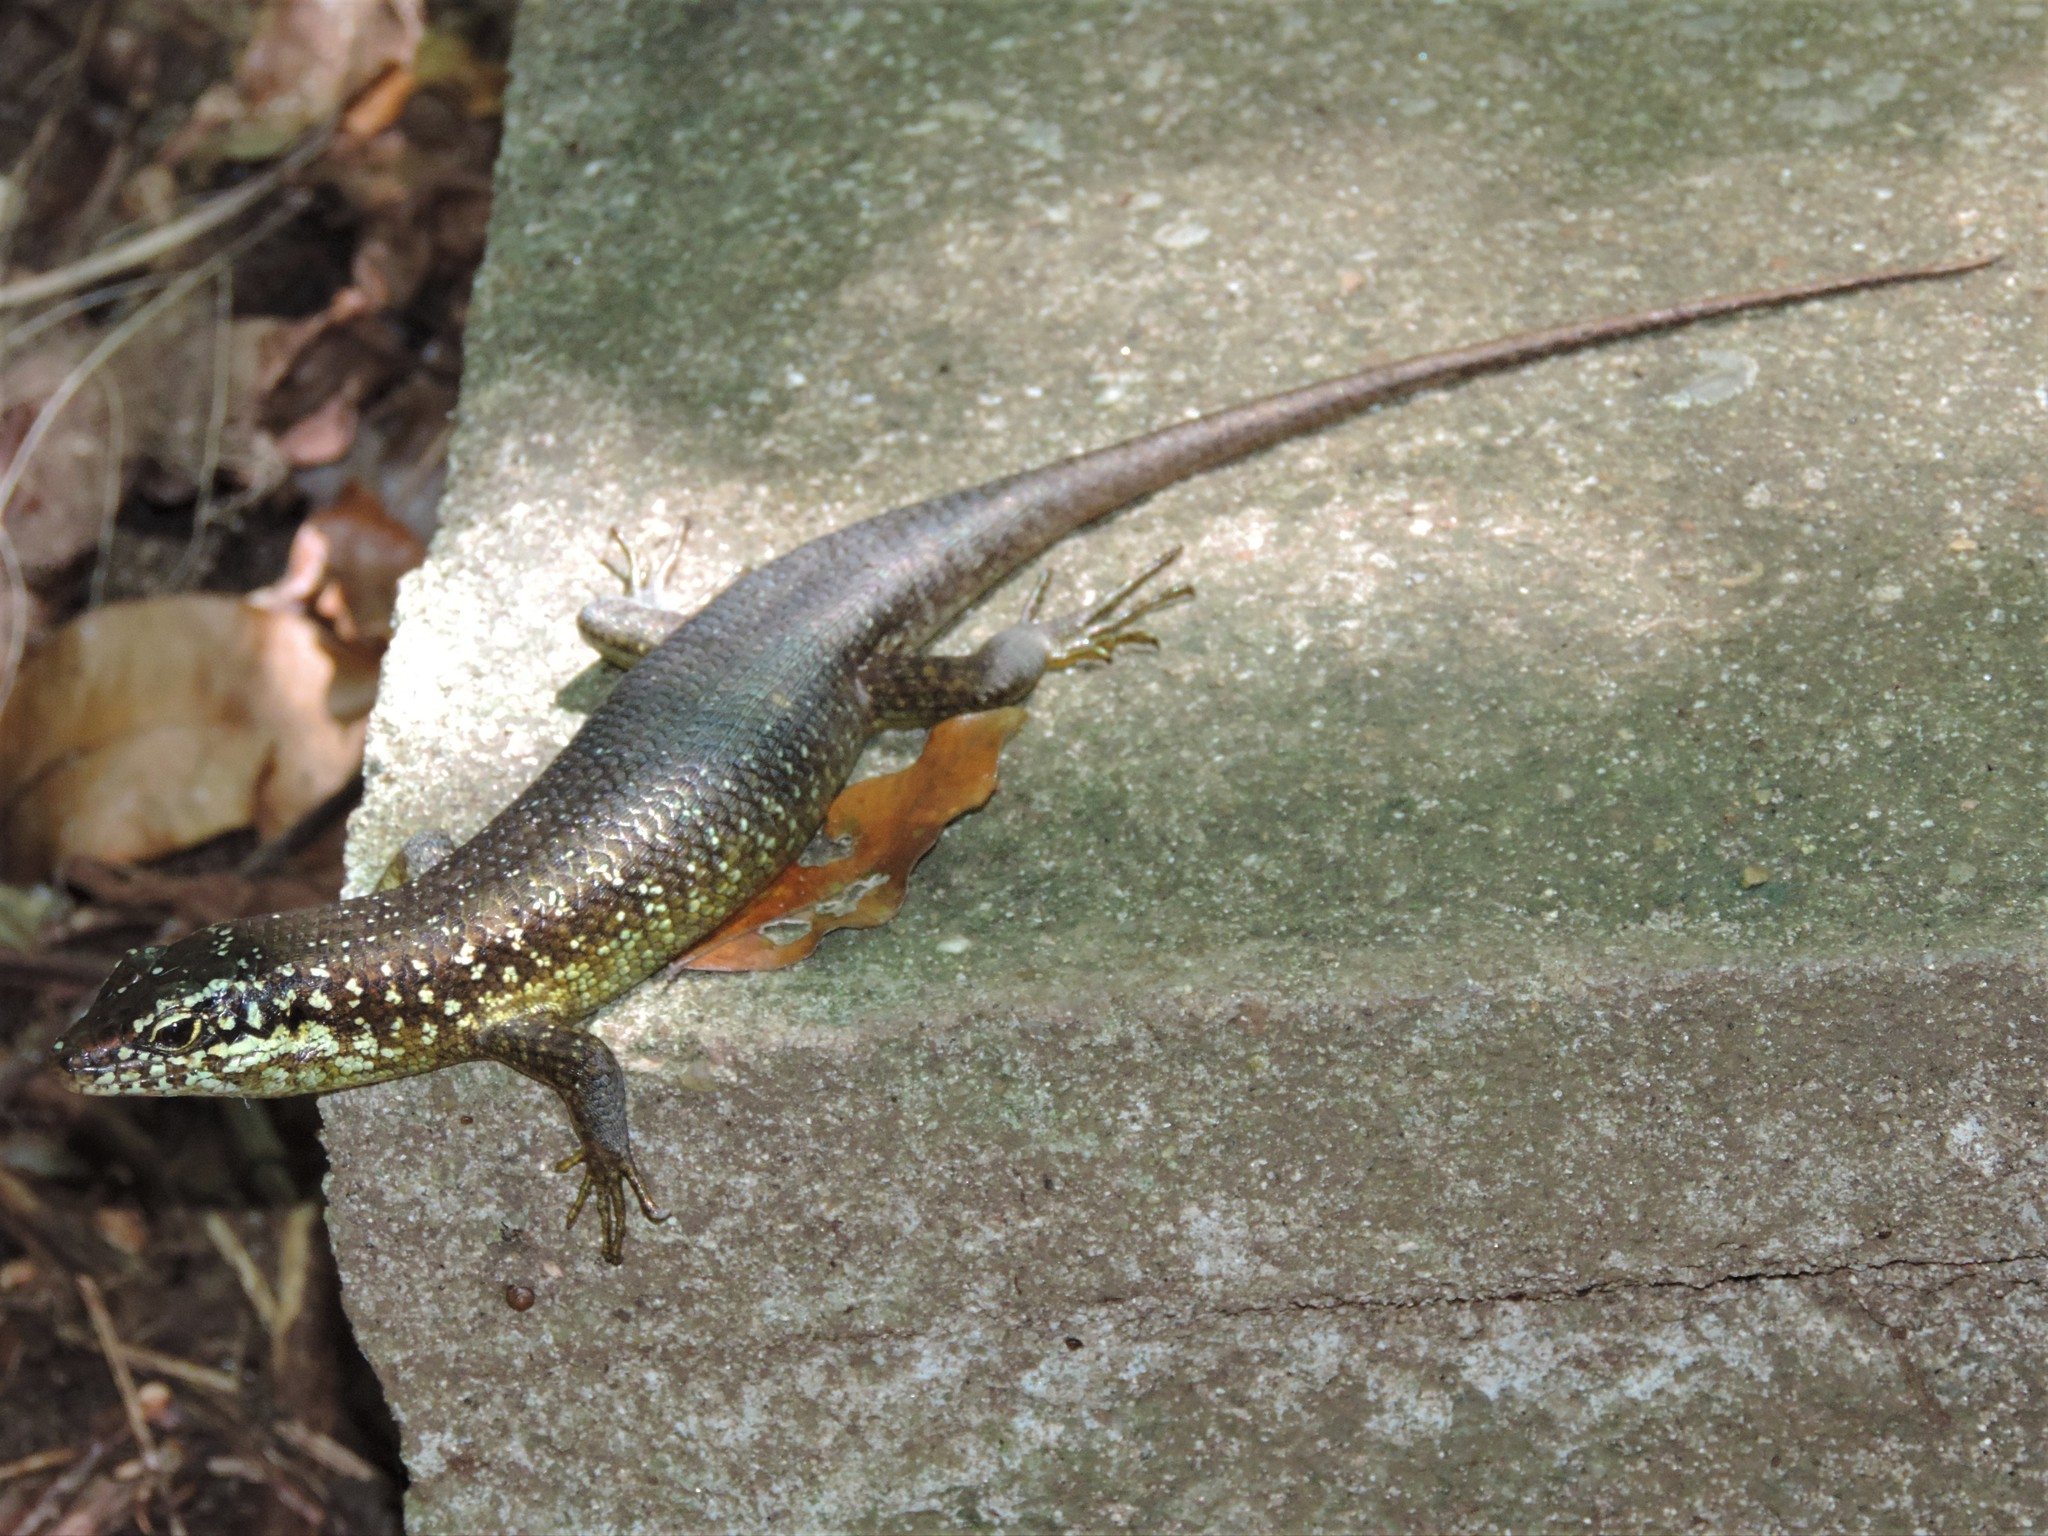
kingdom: Animalia
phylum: Chordata
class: Squamata
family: Scincidae
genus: Trachylepis
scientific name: Trachylepis comorensis
